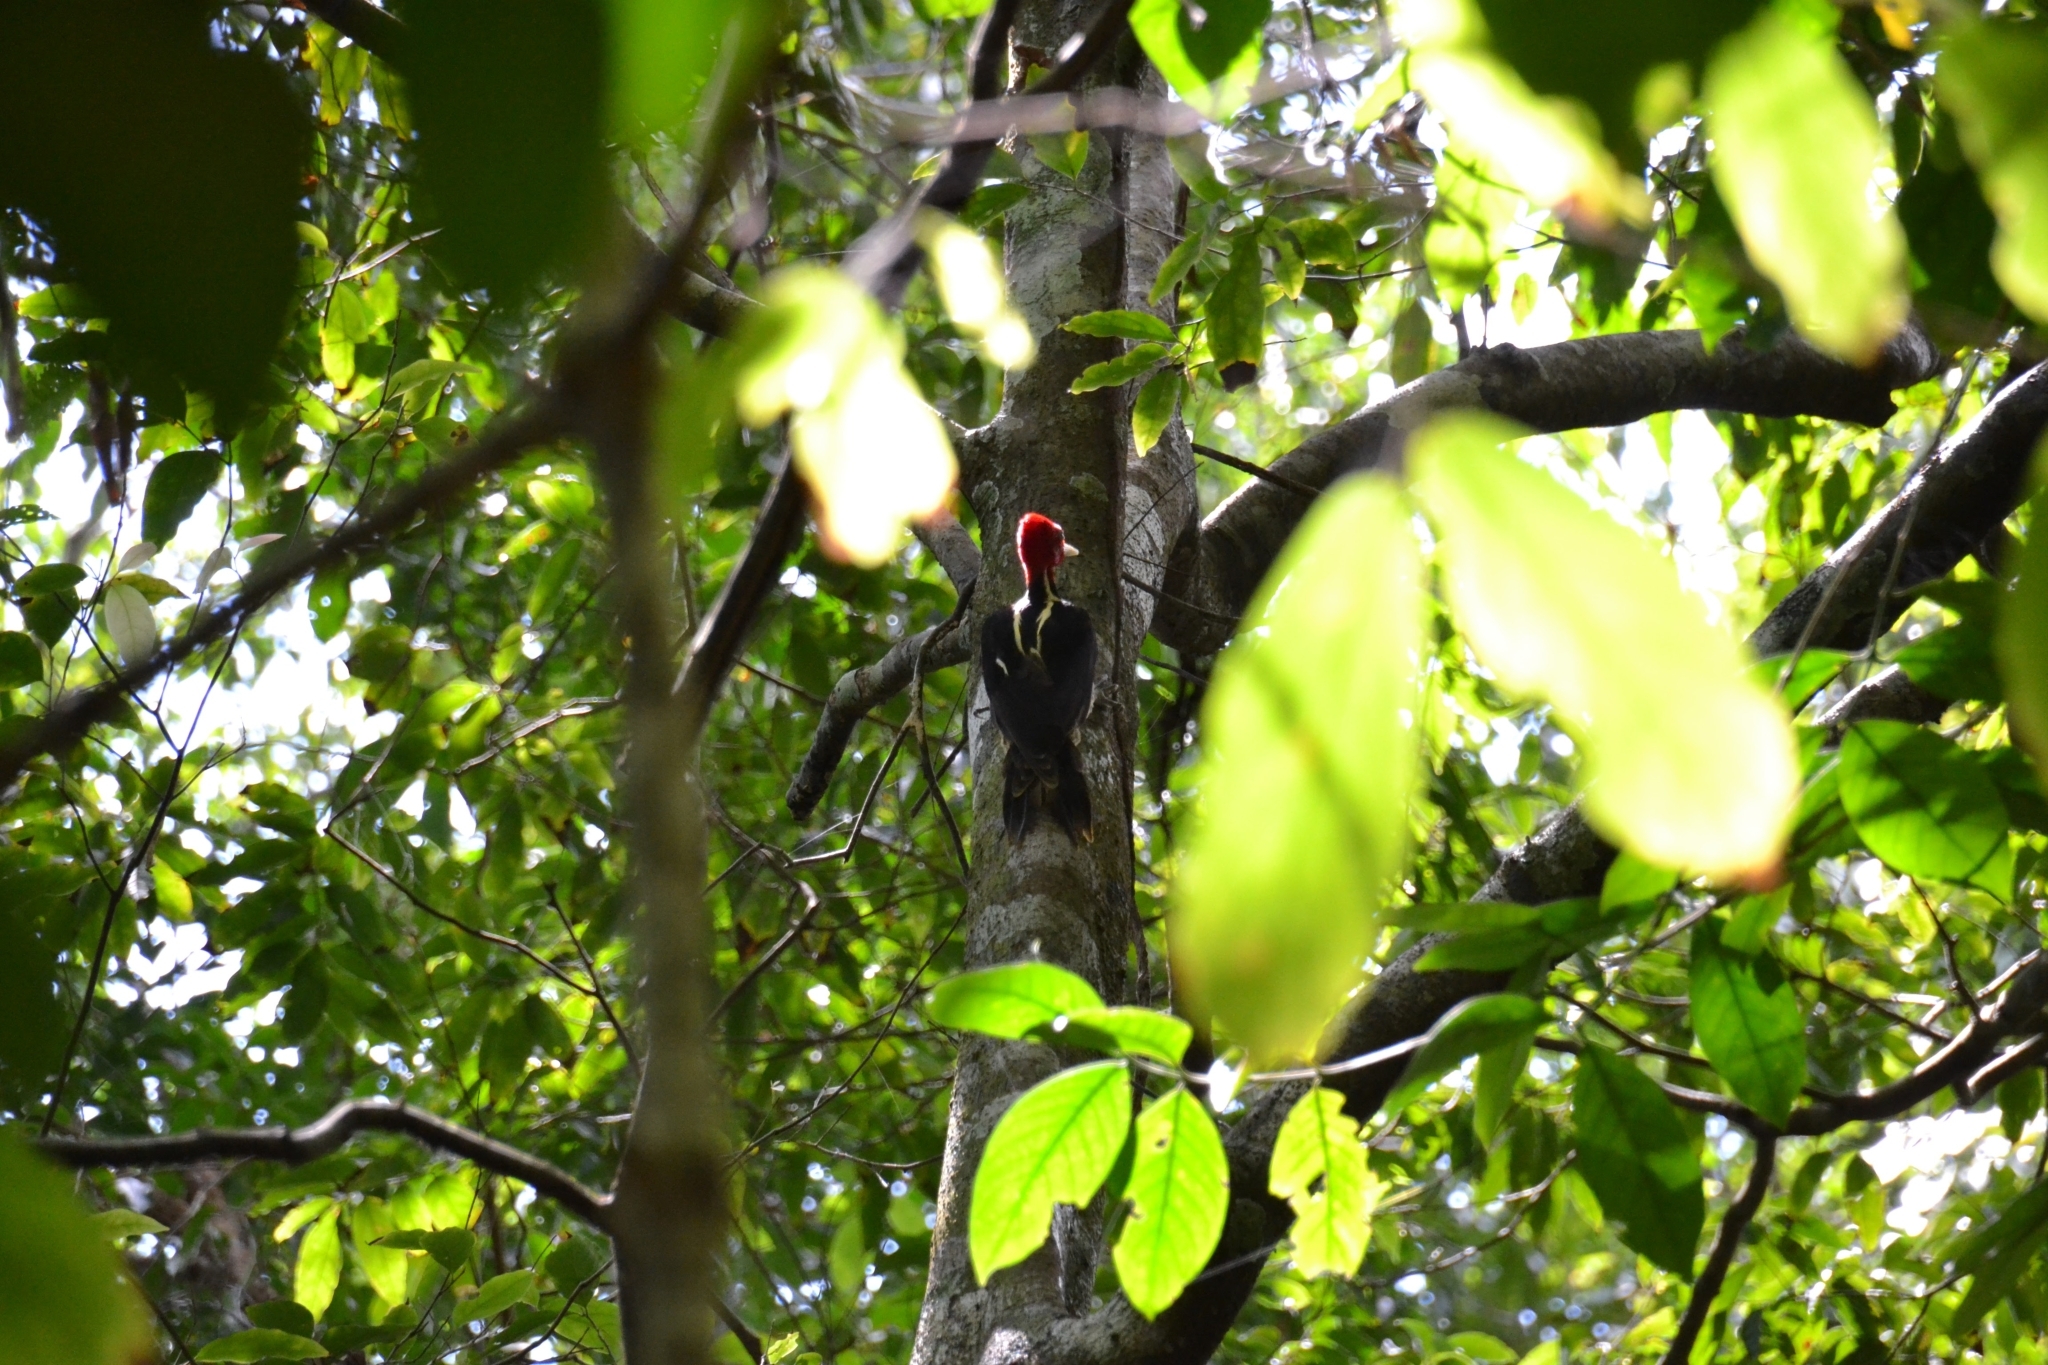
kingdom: Animalia
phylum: Chordata
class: Aves
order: Piciformes
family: Picidae
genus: Campephilus
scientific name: Campephilus guatemalensis
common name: Pale-billed woodpecker
